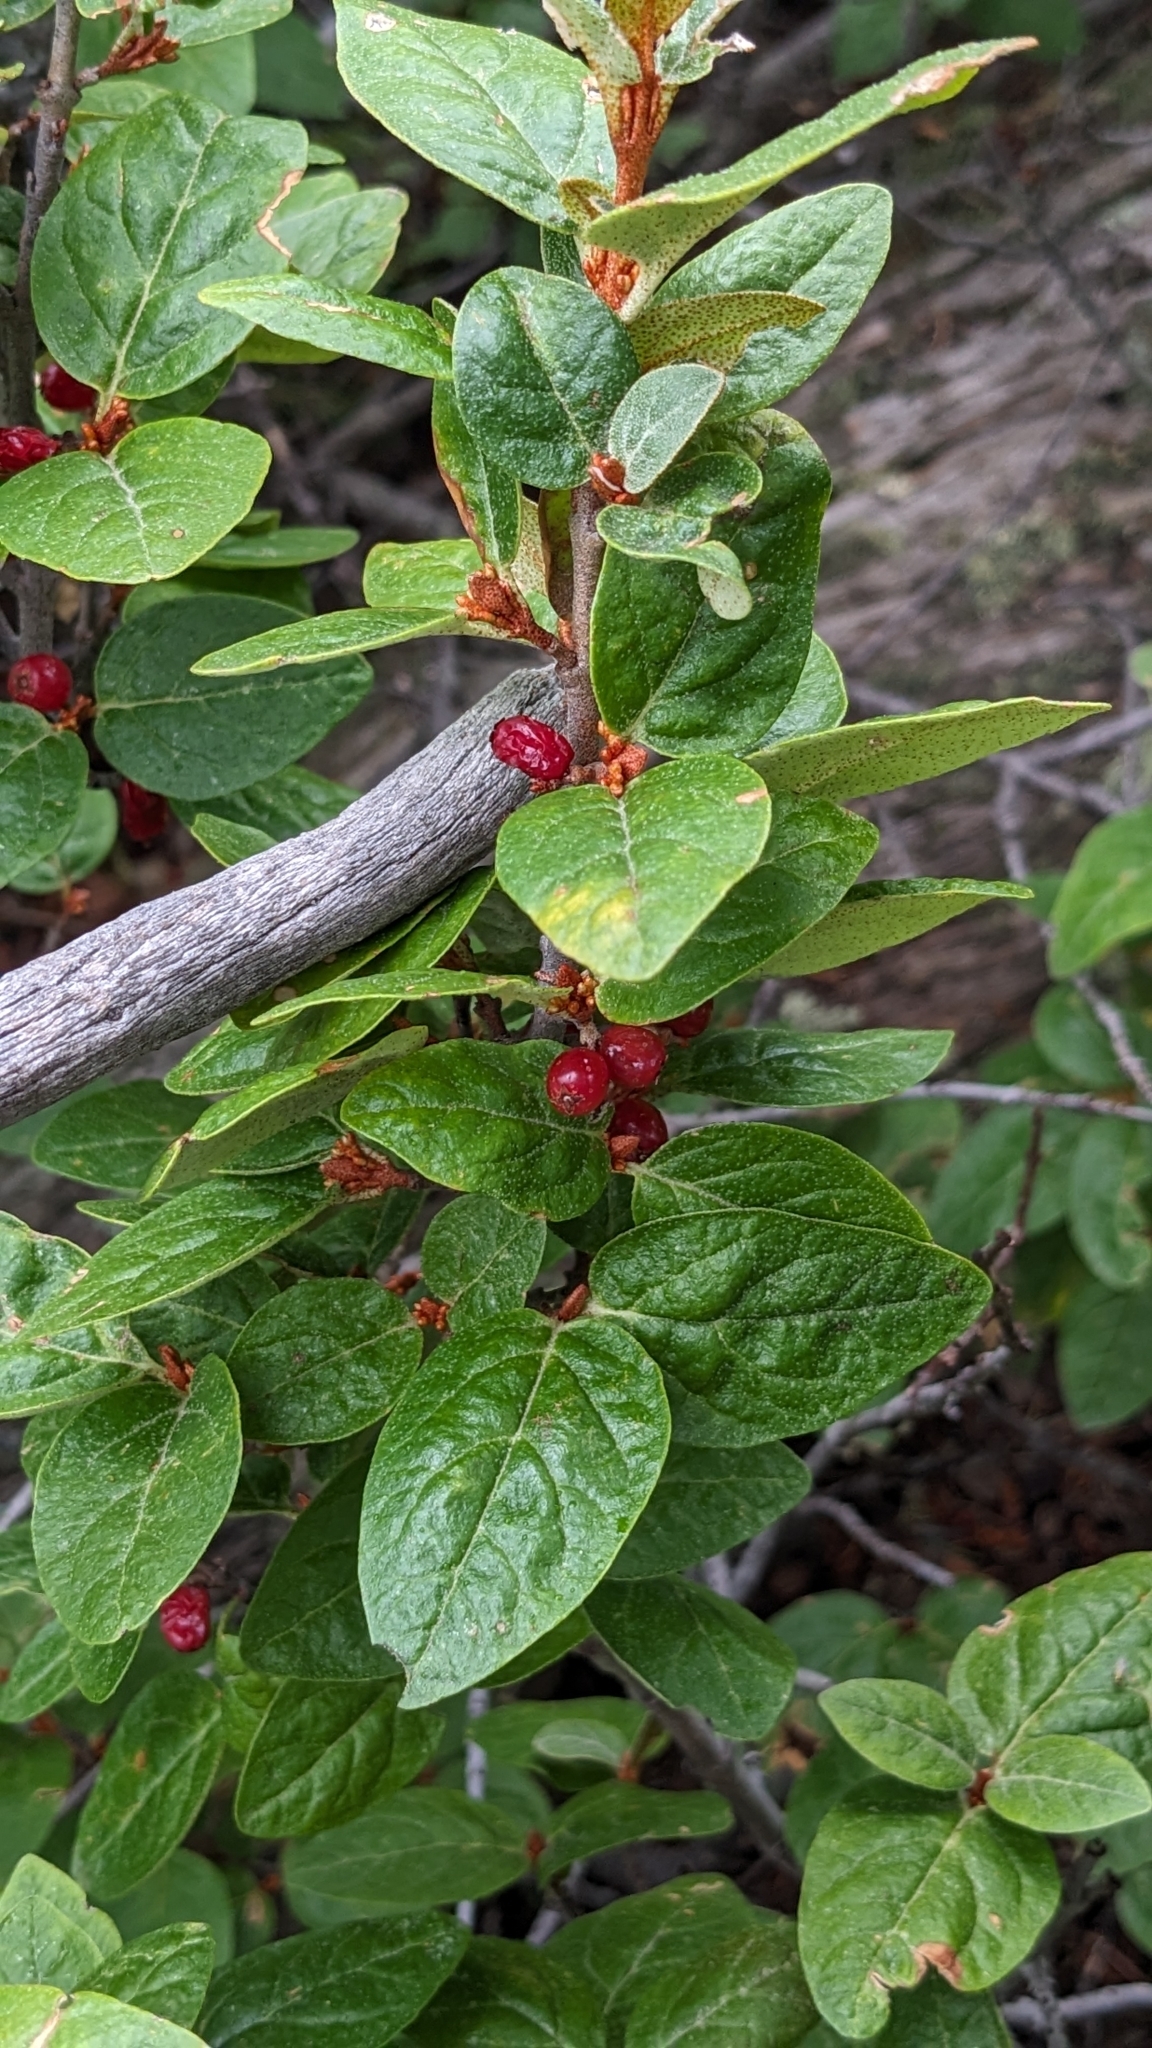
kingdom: Plantae
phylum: Tracheophyta
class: Magnoliopsida
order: Rosales
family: Elaeagnaceae
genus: Shepherdia
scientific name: Shepherdia canadensis
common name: Soapberry
